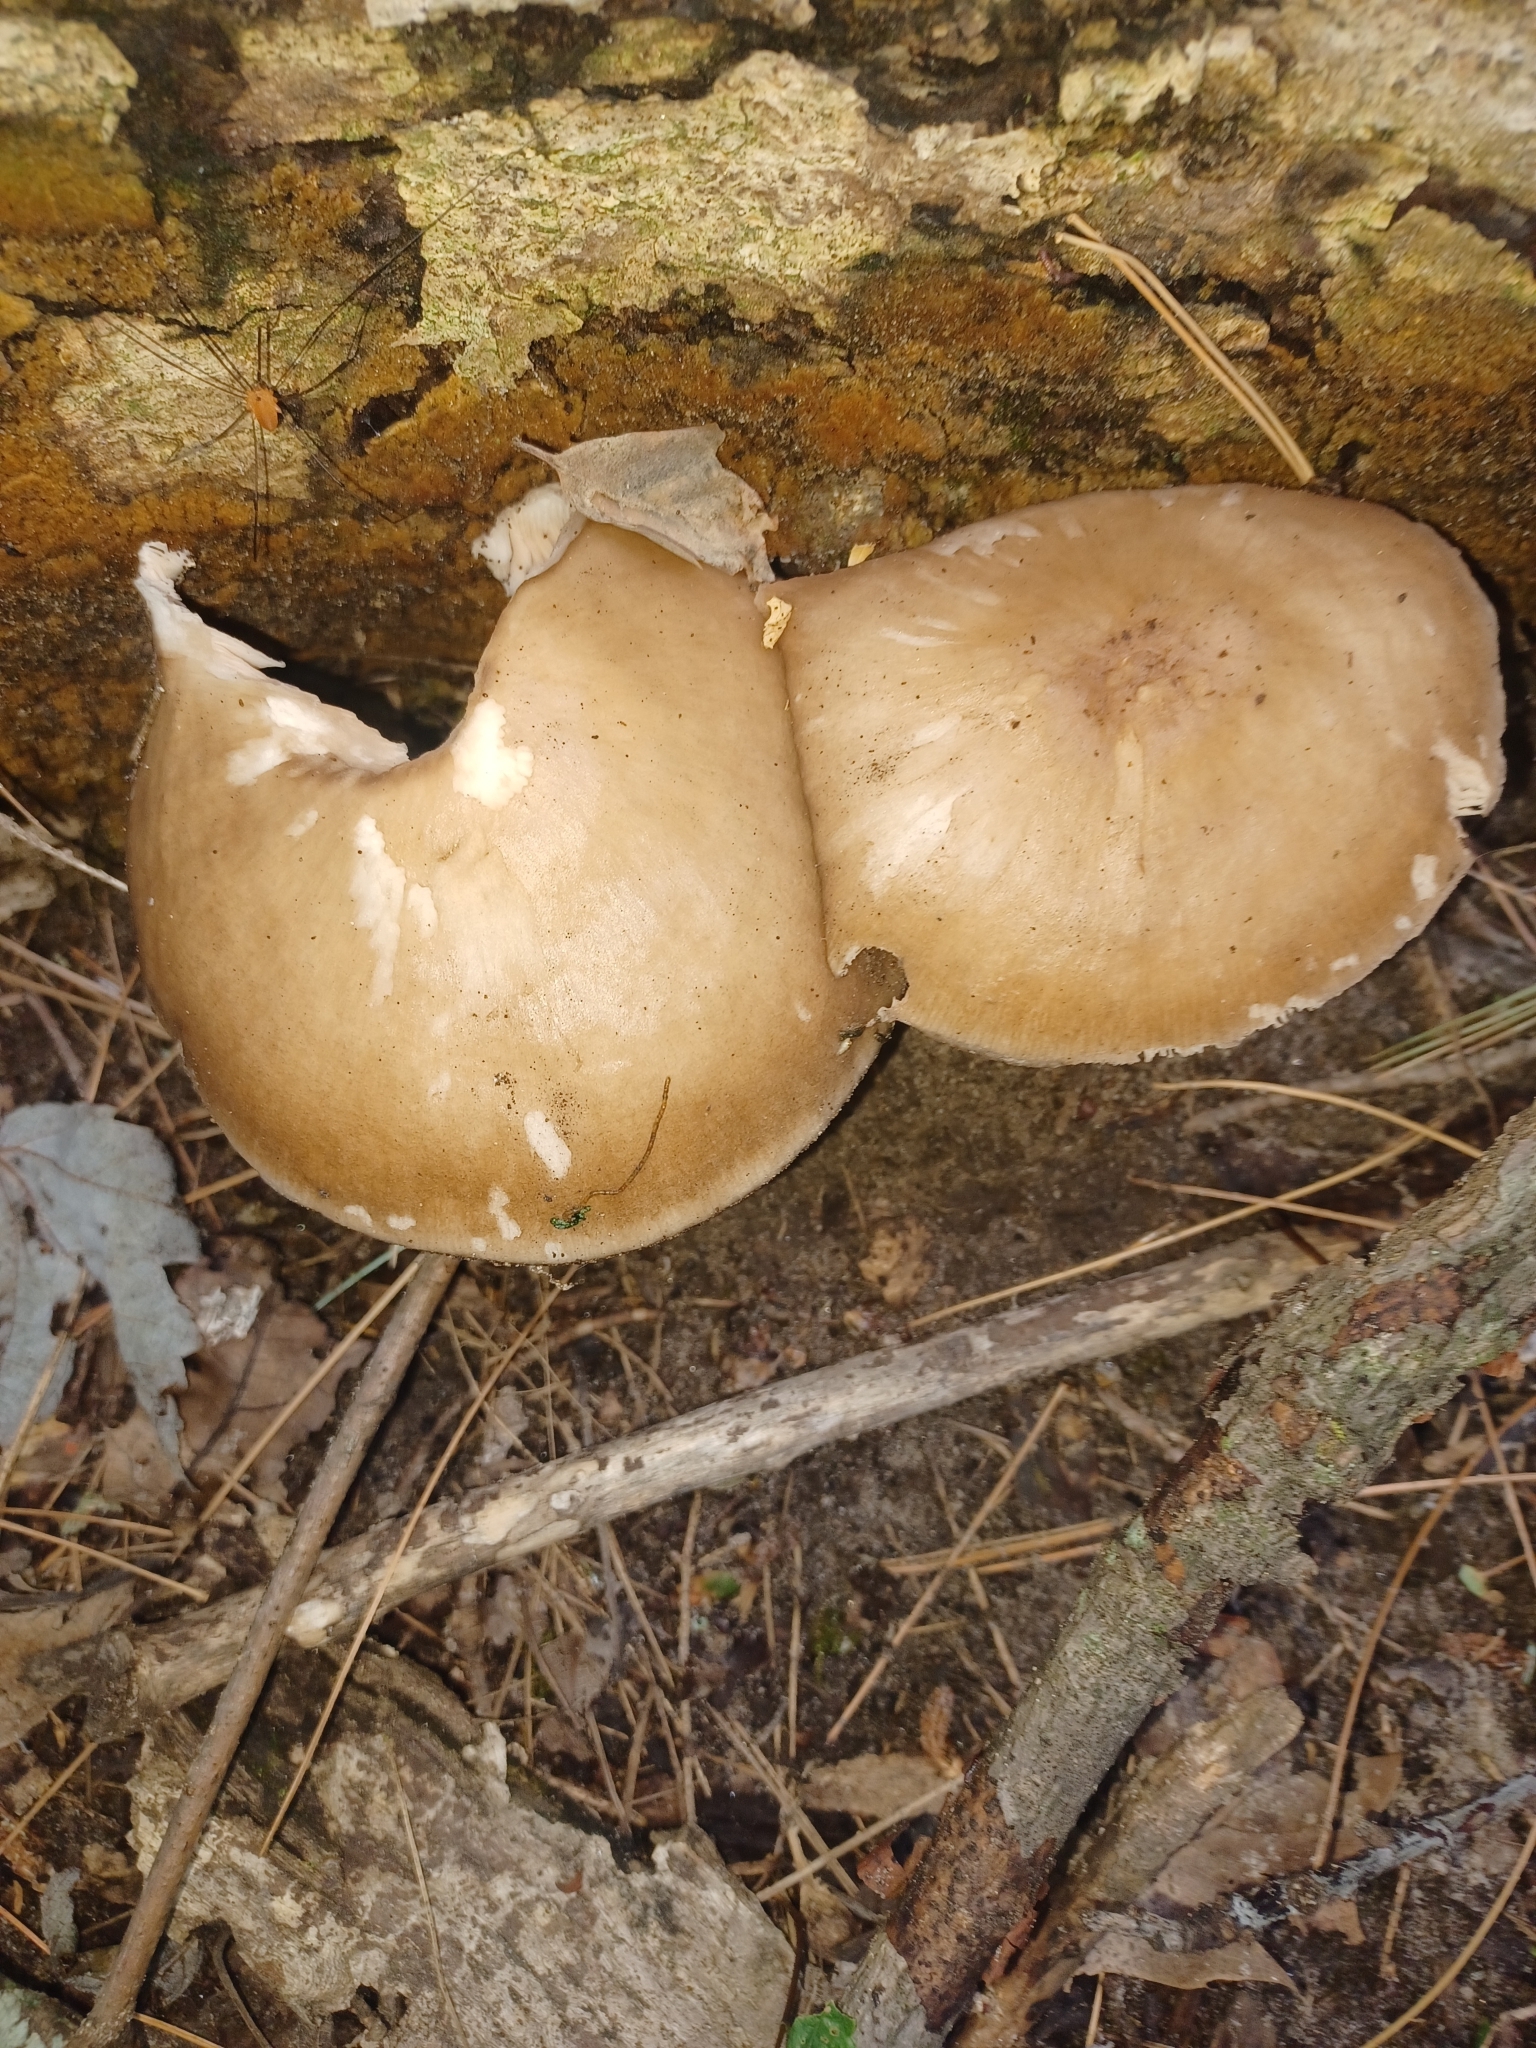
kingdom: Fungi
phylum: Basidiomycota
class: Agaricomycetes
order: Agaricales
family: Pluteaceae
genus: Pluteus
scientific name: Pluteus cervinus
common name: Deer shield
